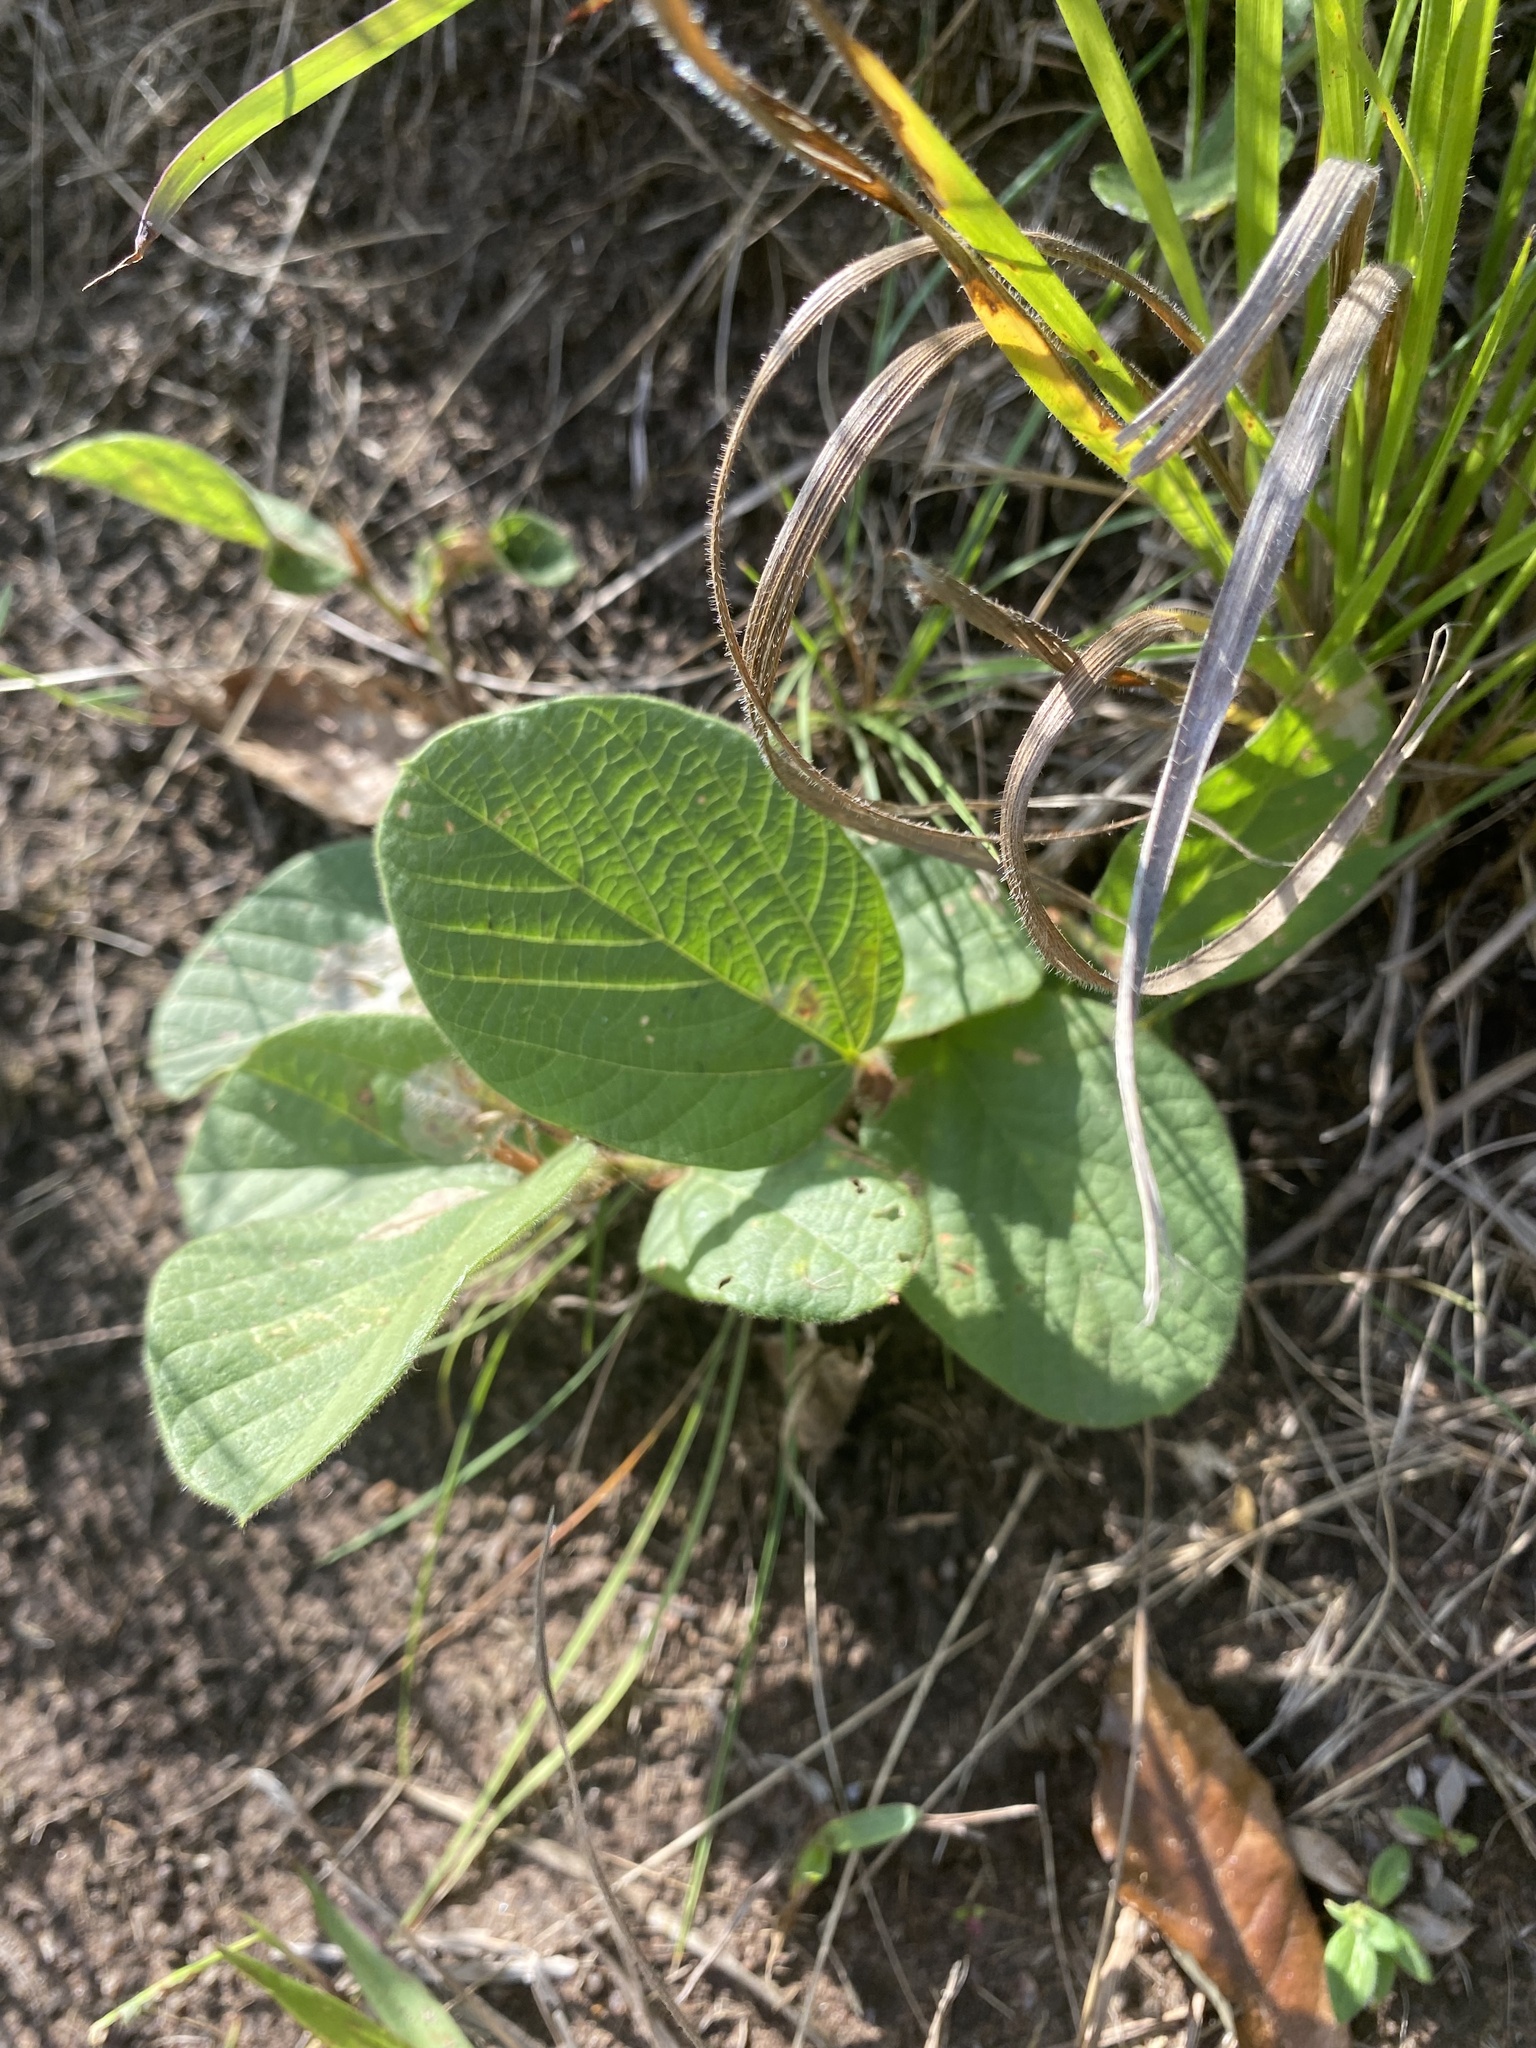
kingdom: Plantae
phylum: Tracheophyta
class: Magnoliopsida
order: Fabales
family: Fabaceae
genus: Eriosema
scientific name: Eriosema cordatum
